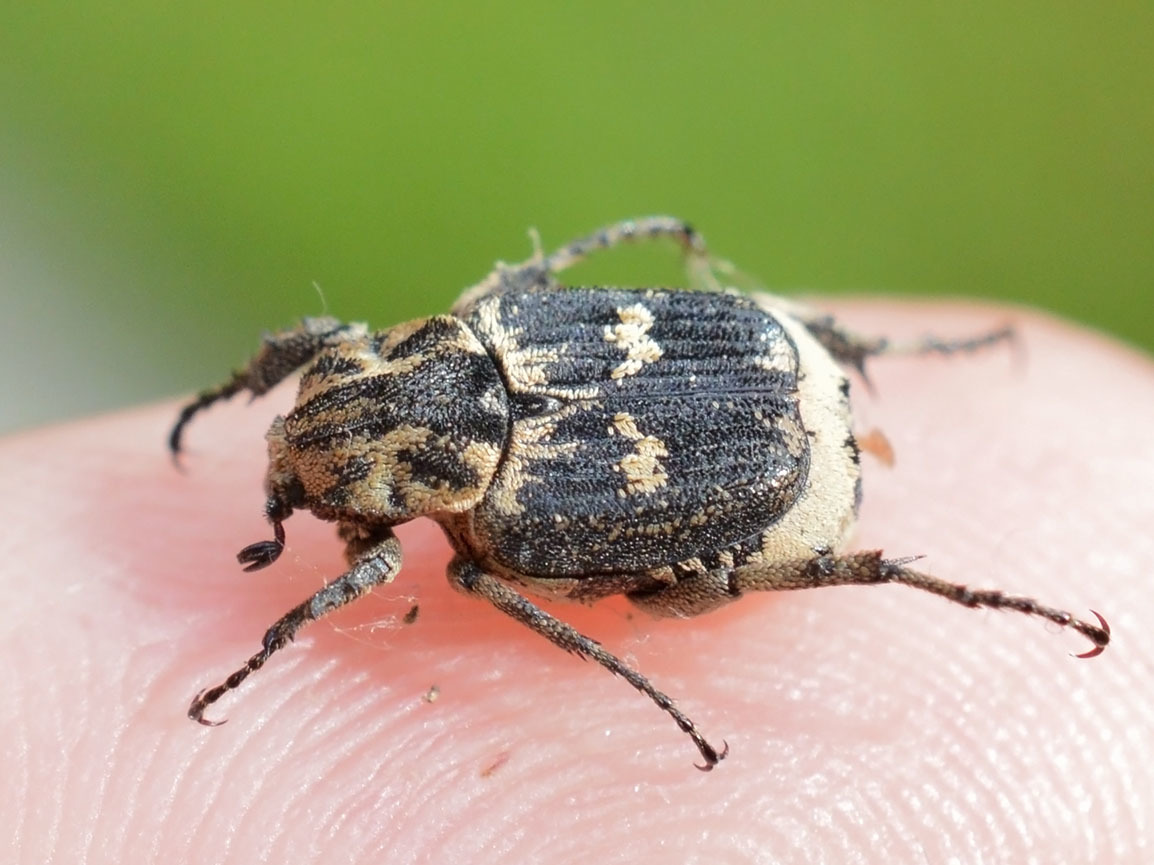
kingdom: Animalia
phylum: Arthropoda
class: Insecta
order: Coleoptera
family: Scarabaeidae
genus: Valgus
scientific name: Valgus hemipterus
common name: Bug flower chafer
